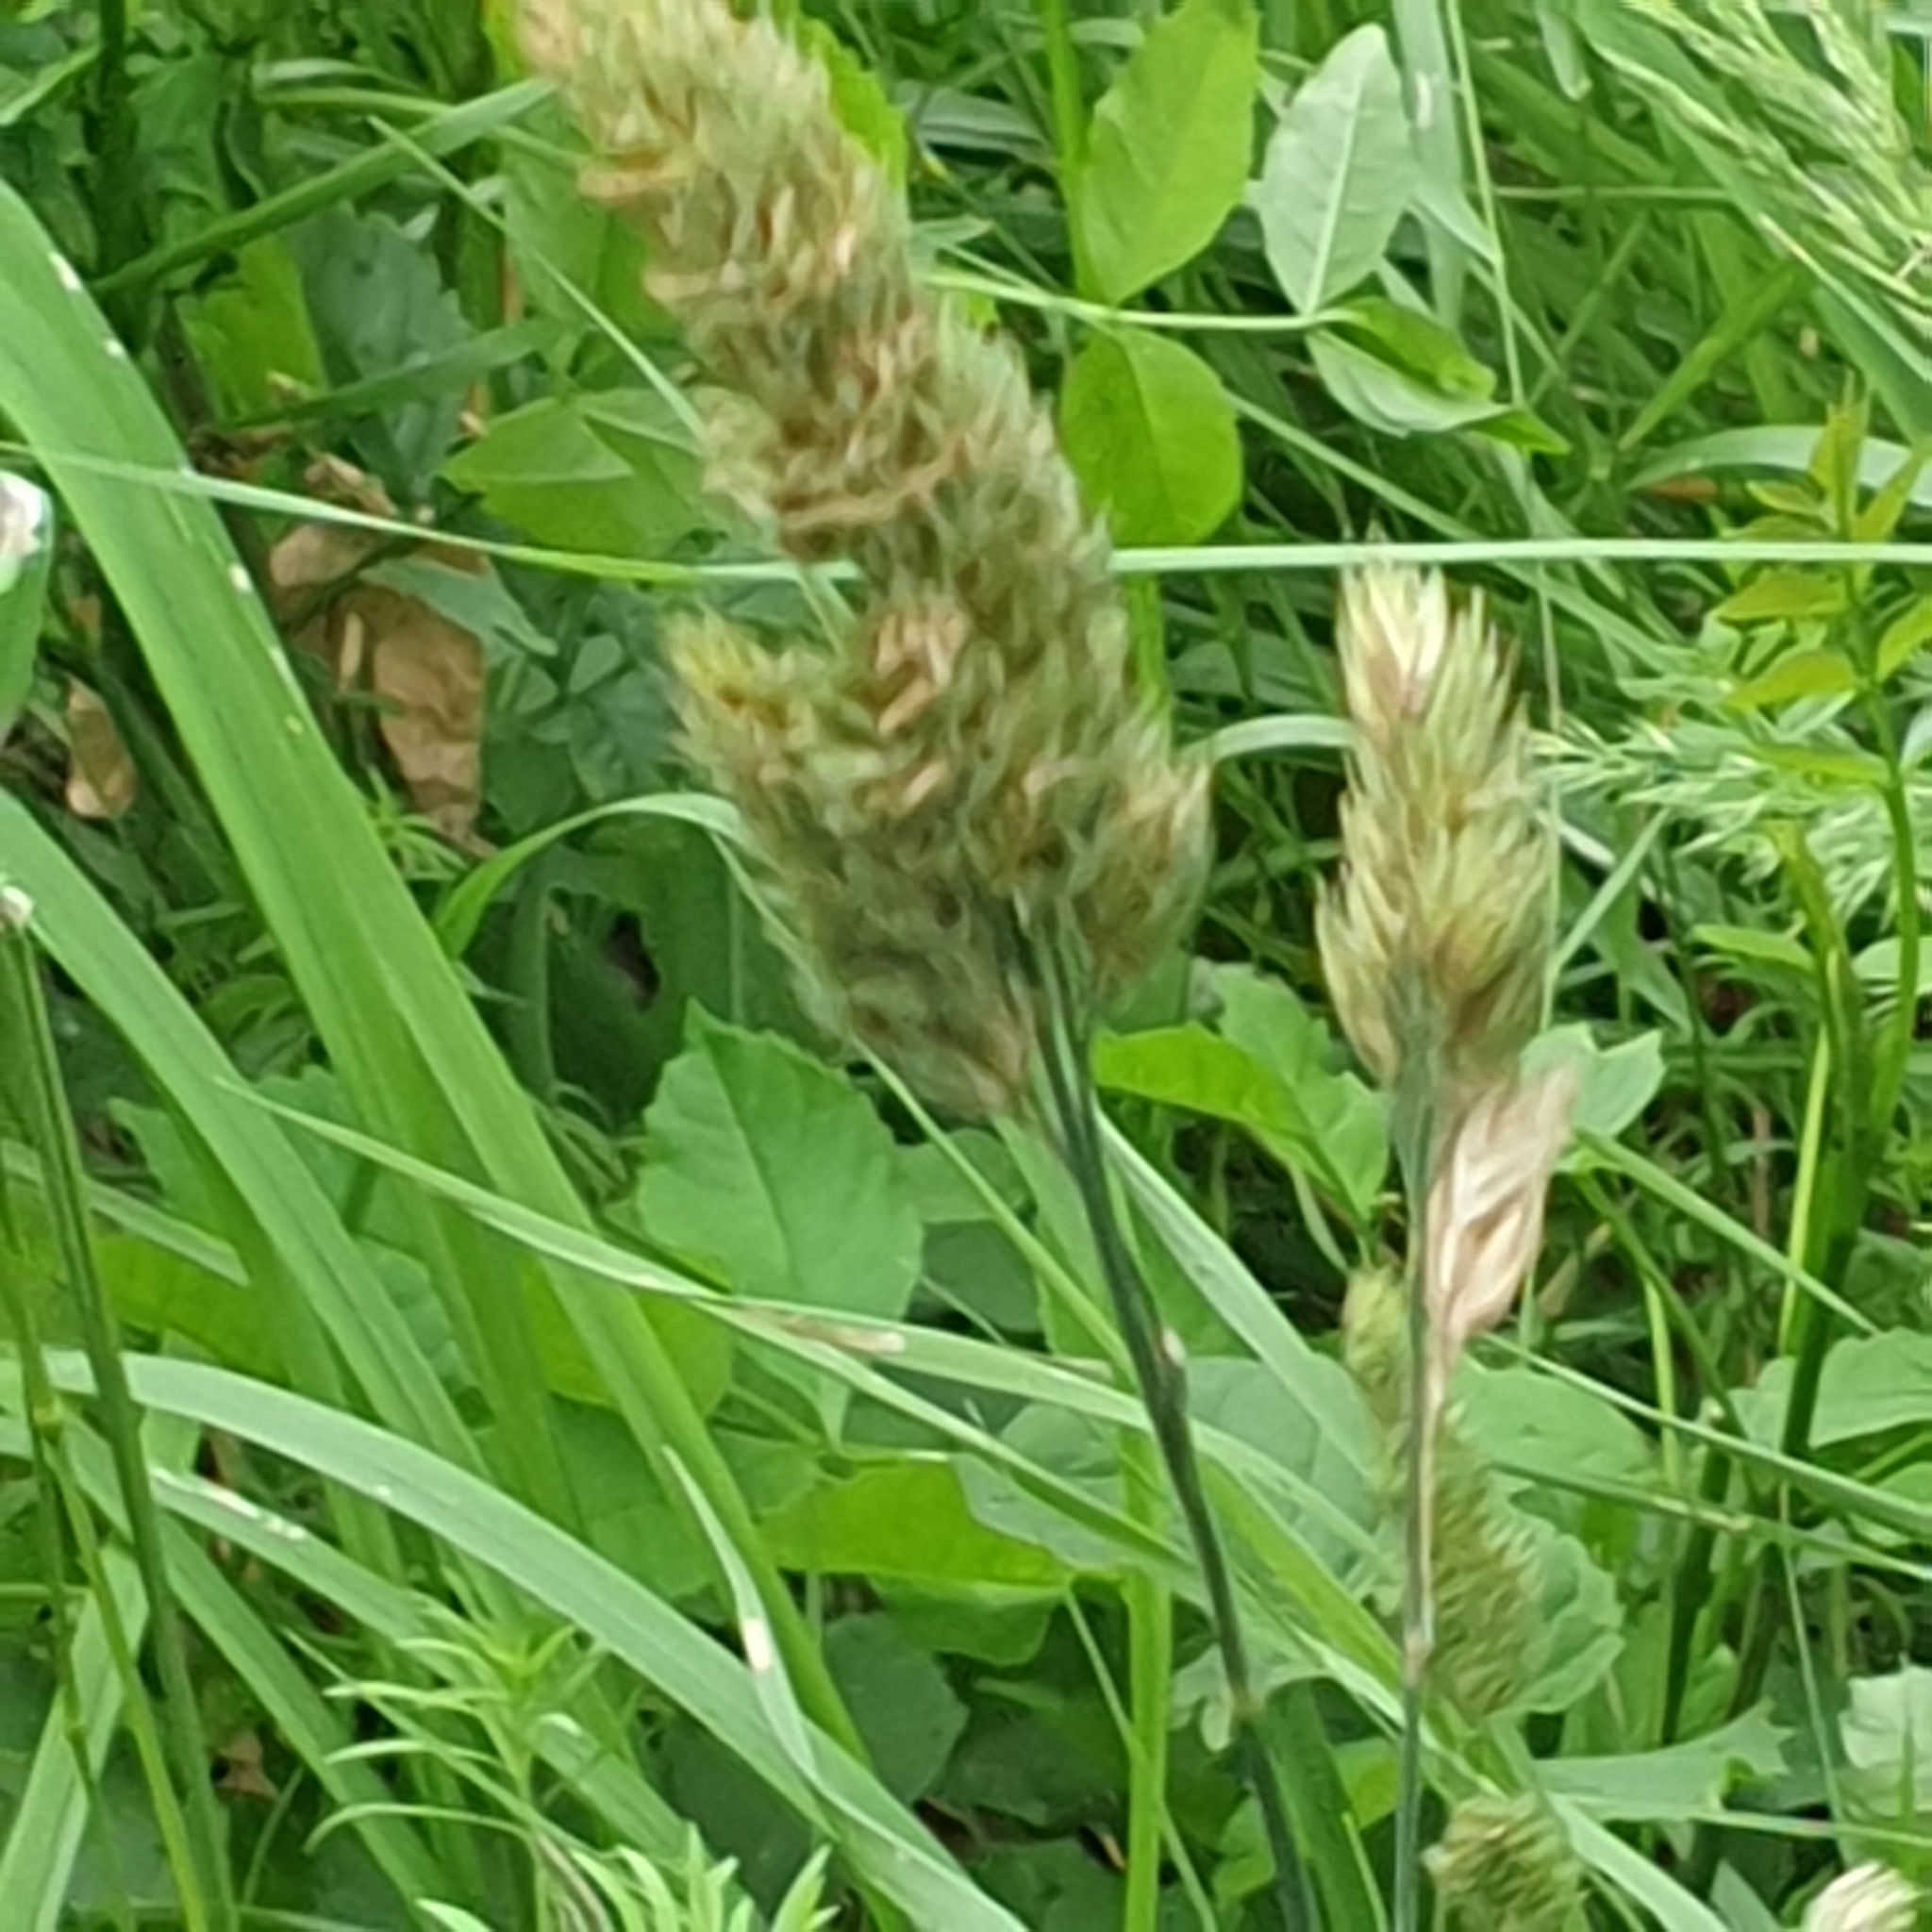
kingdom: Plantae
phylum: Tracheophyta
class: Liliopsida
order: Poales
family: Poaceae
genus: Dactylis
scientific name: Dactylis glomerata
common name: Orchardgrass
